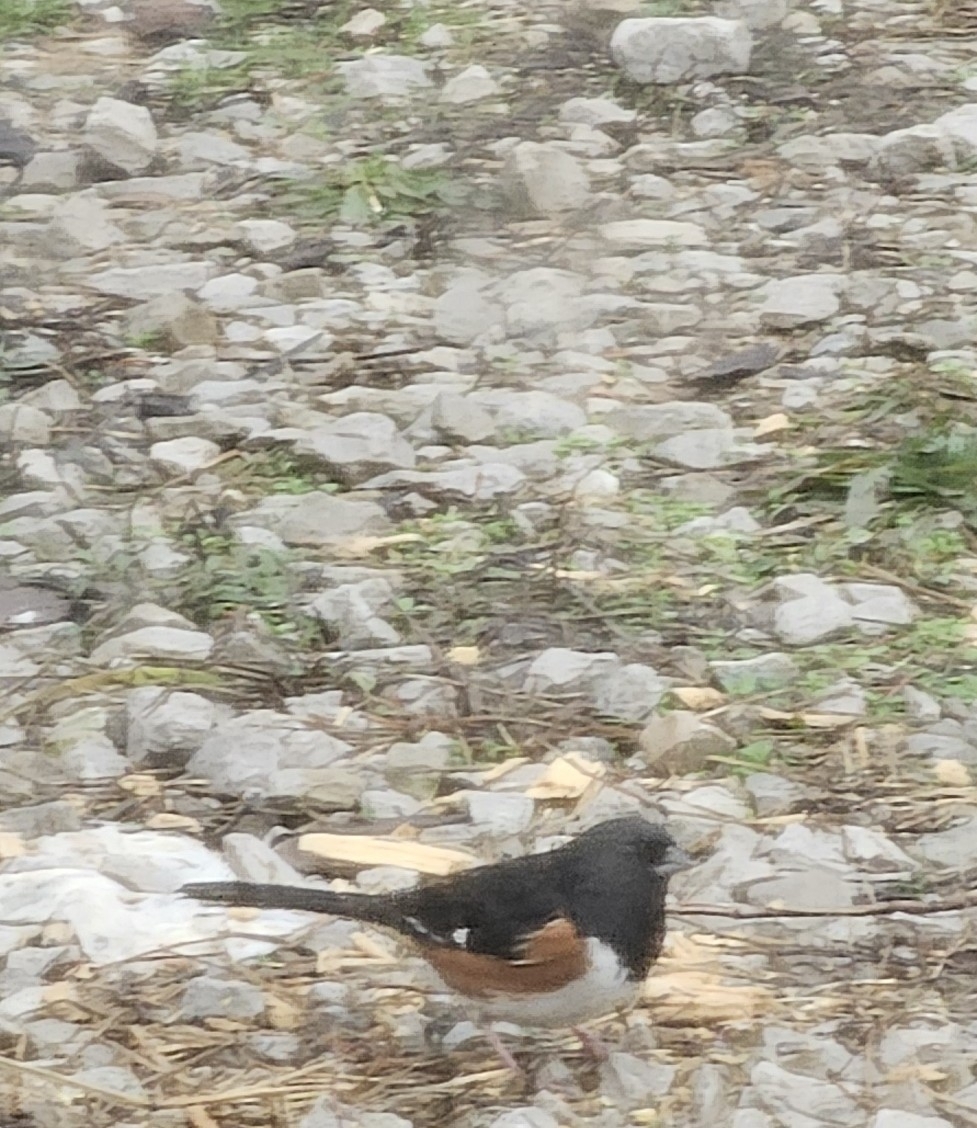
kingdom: Animalia
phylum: Chordata
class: Aves
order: Passeriformes
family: Passerellidae
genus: Pipilo
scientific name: Pipilo erythrophthalmus
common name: Eastern towhee
